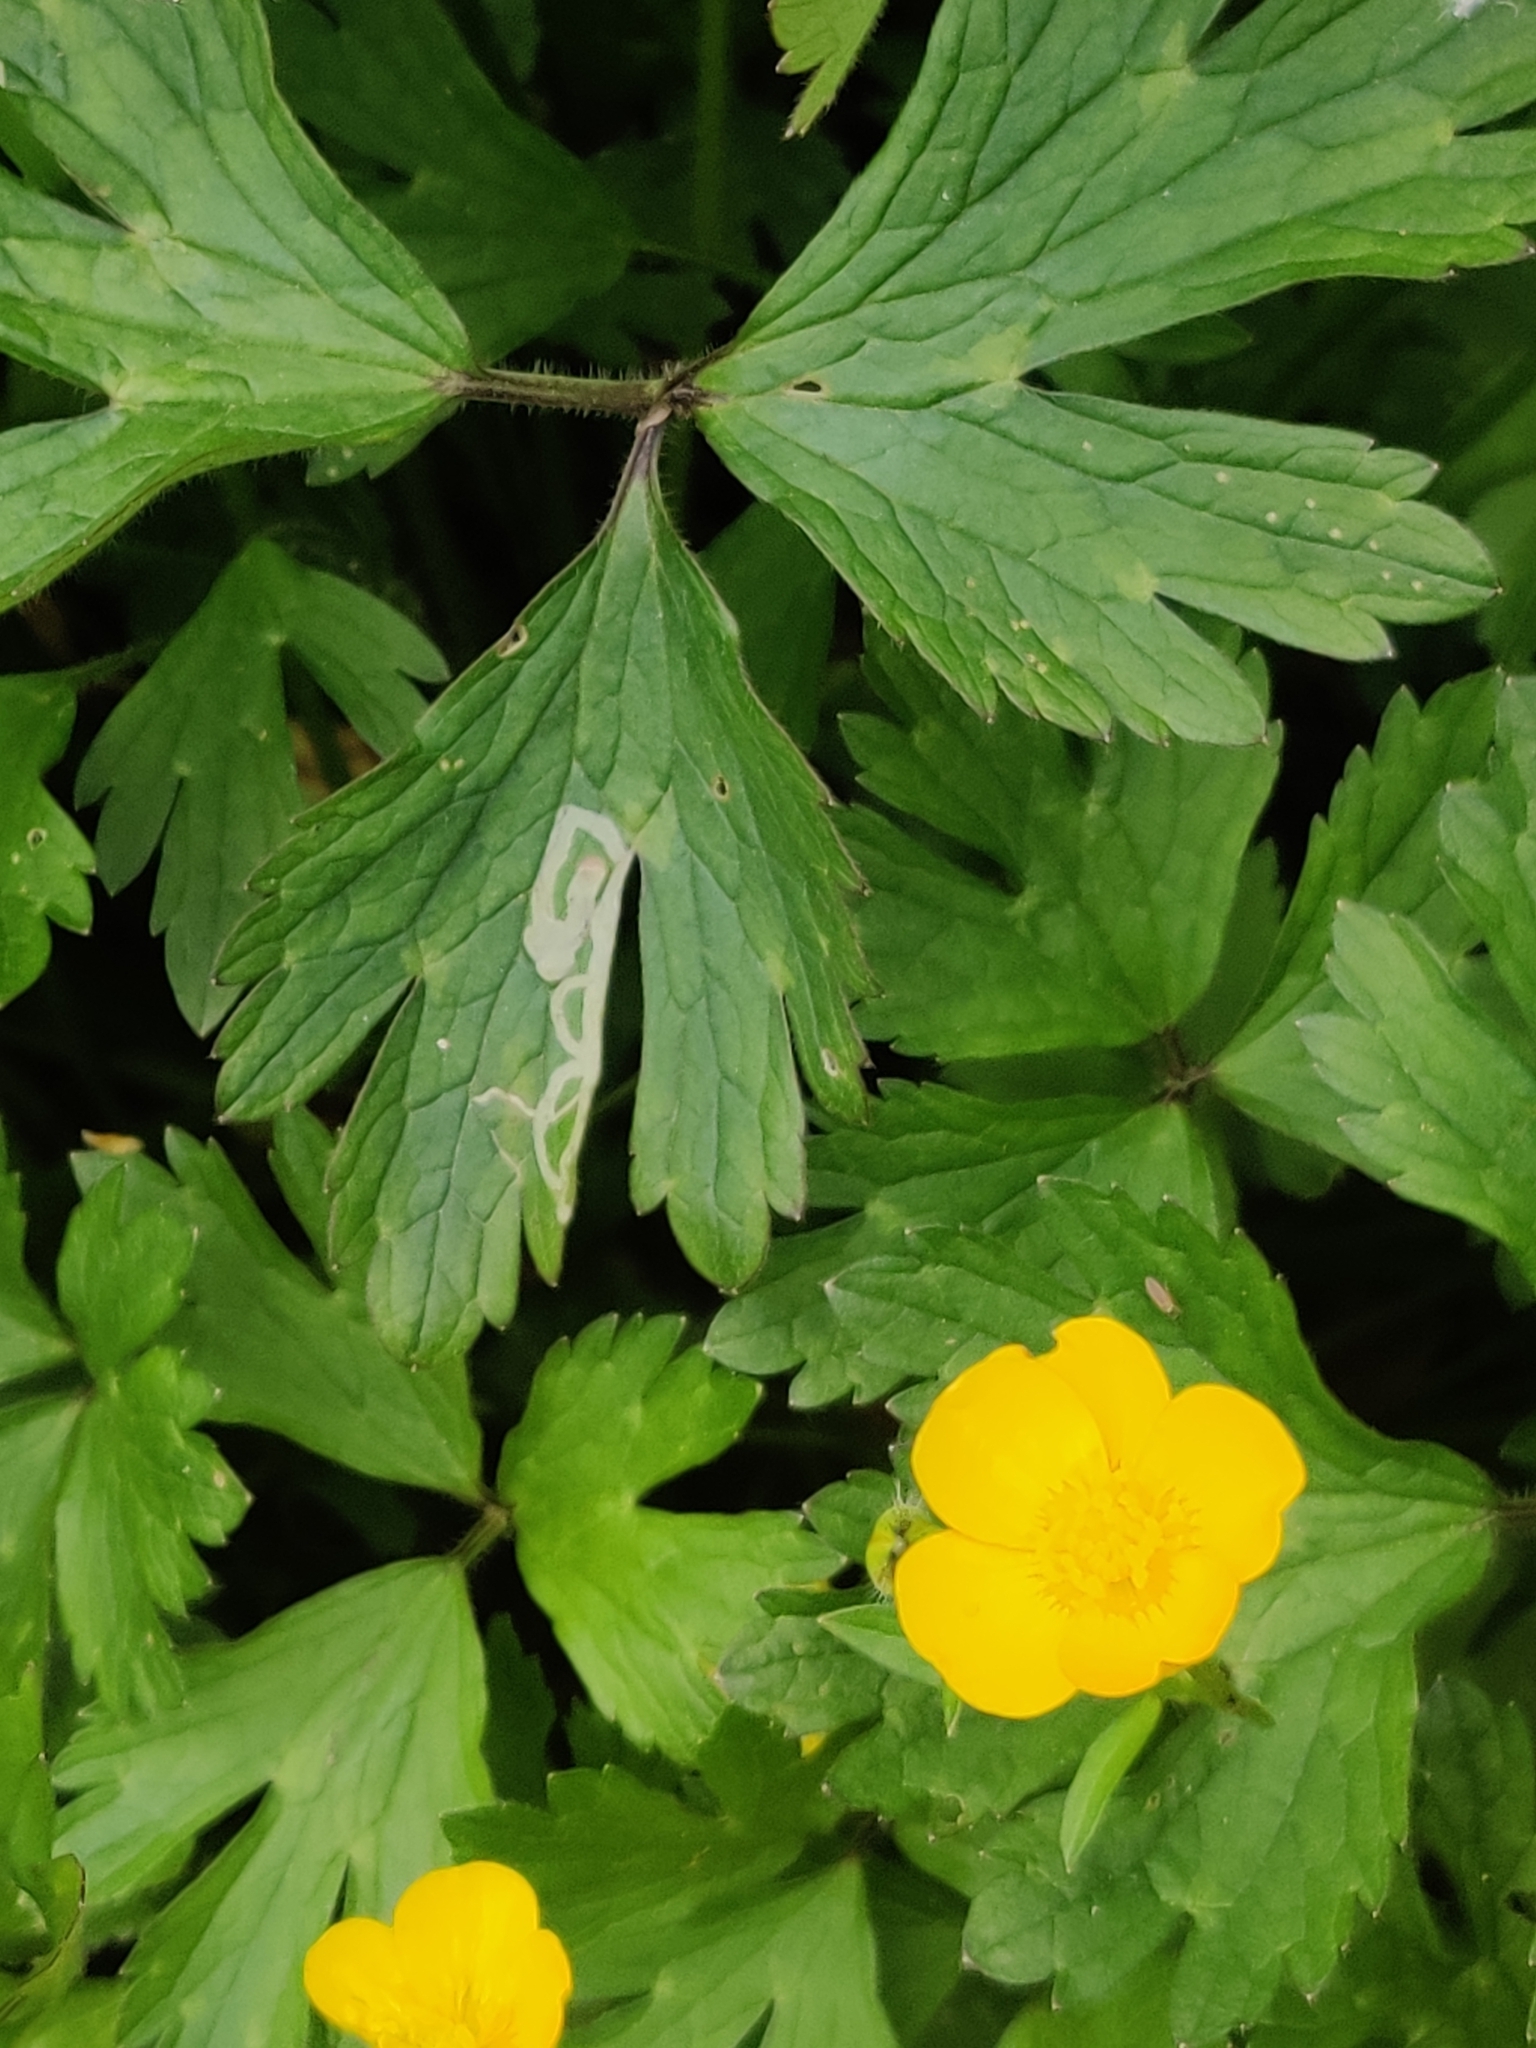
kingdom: Plantae
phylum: Tracheophyta
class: Magnoliopsida
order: Ranunculales
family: Ranunculaceae
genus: Ranunculus
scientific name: Ranunculus repens
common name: Creeping buttercup
